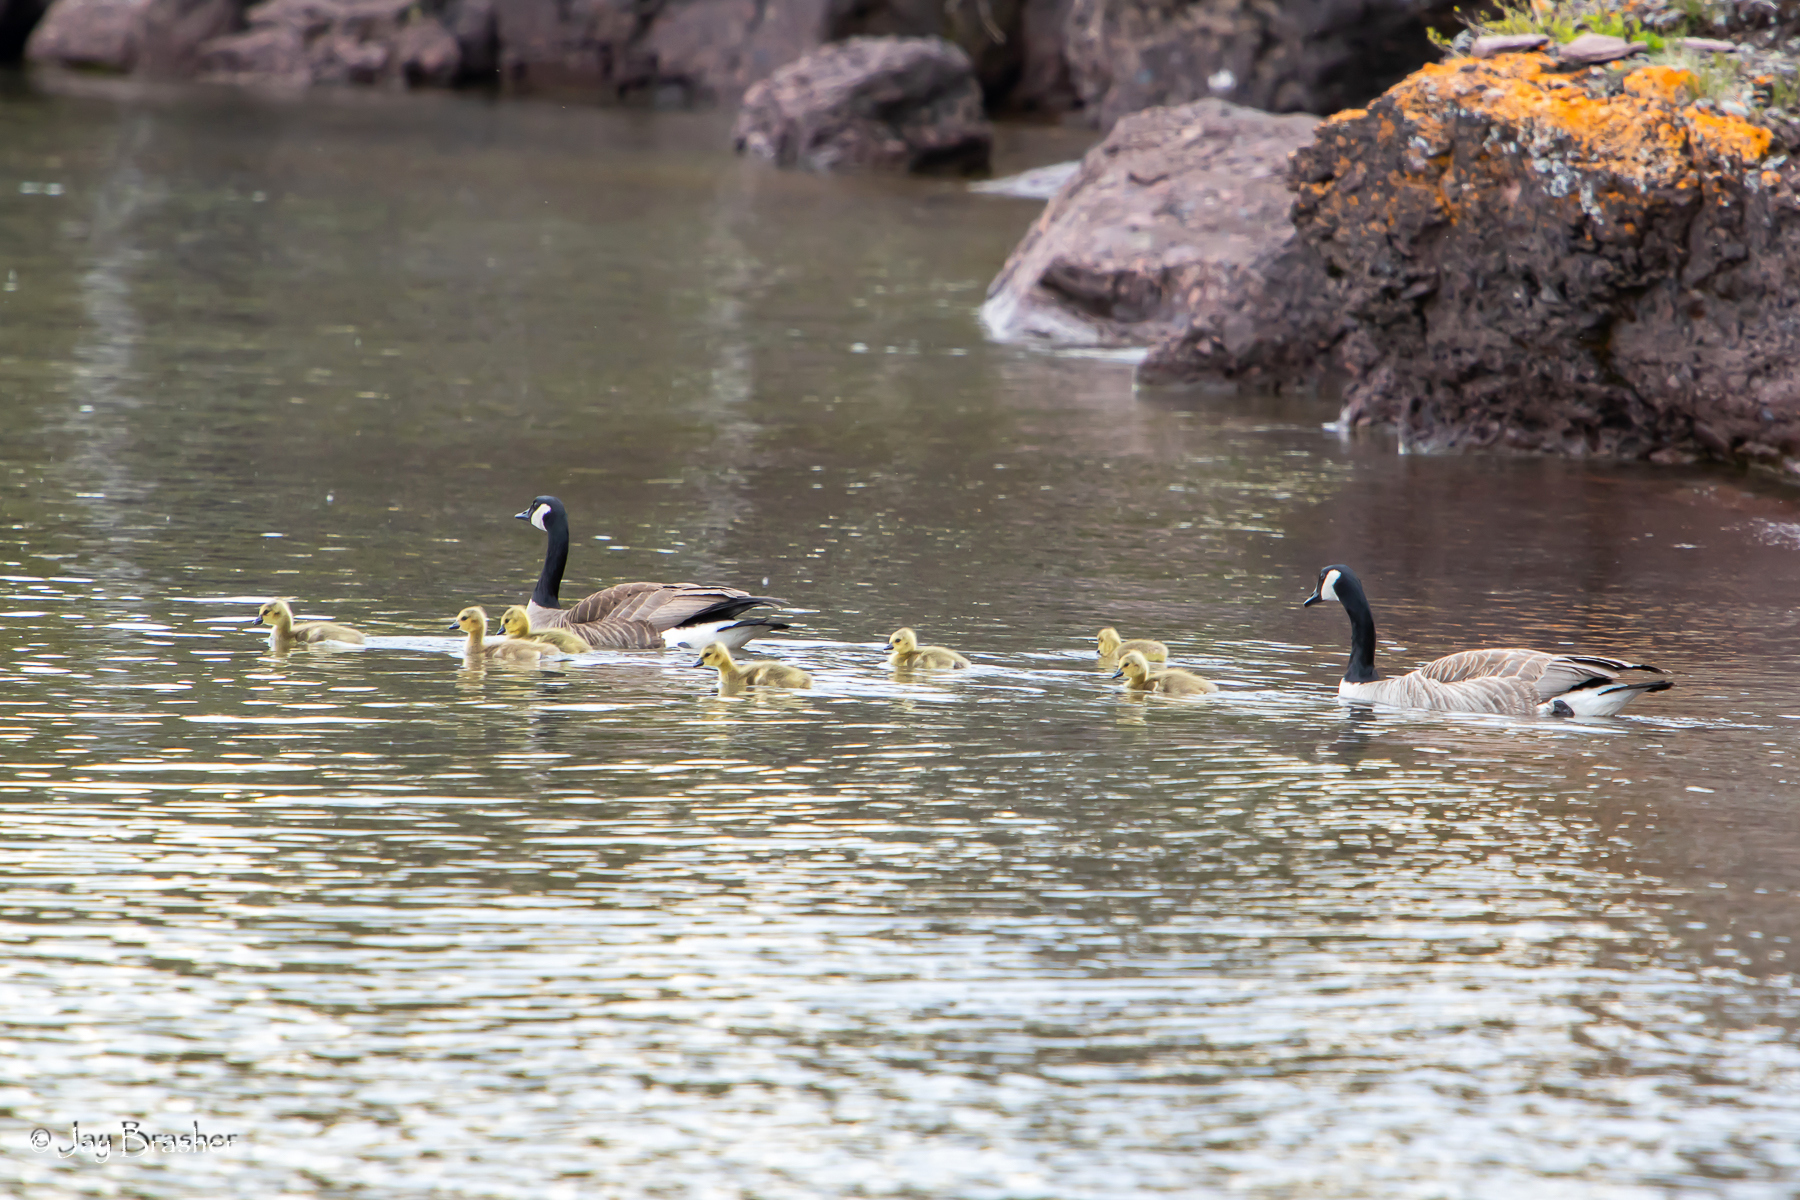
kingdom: Animalia
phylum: Chordata
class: Aves
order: Anseriformes
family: Anatidae
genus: Branta
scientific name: Branta canadensis
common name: Canada goose
